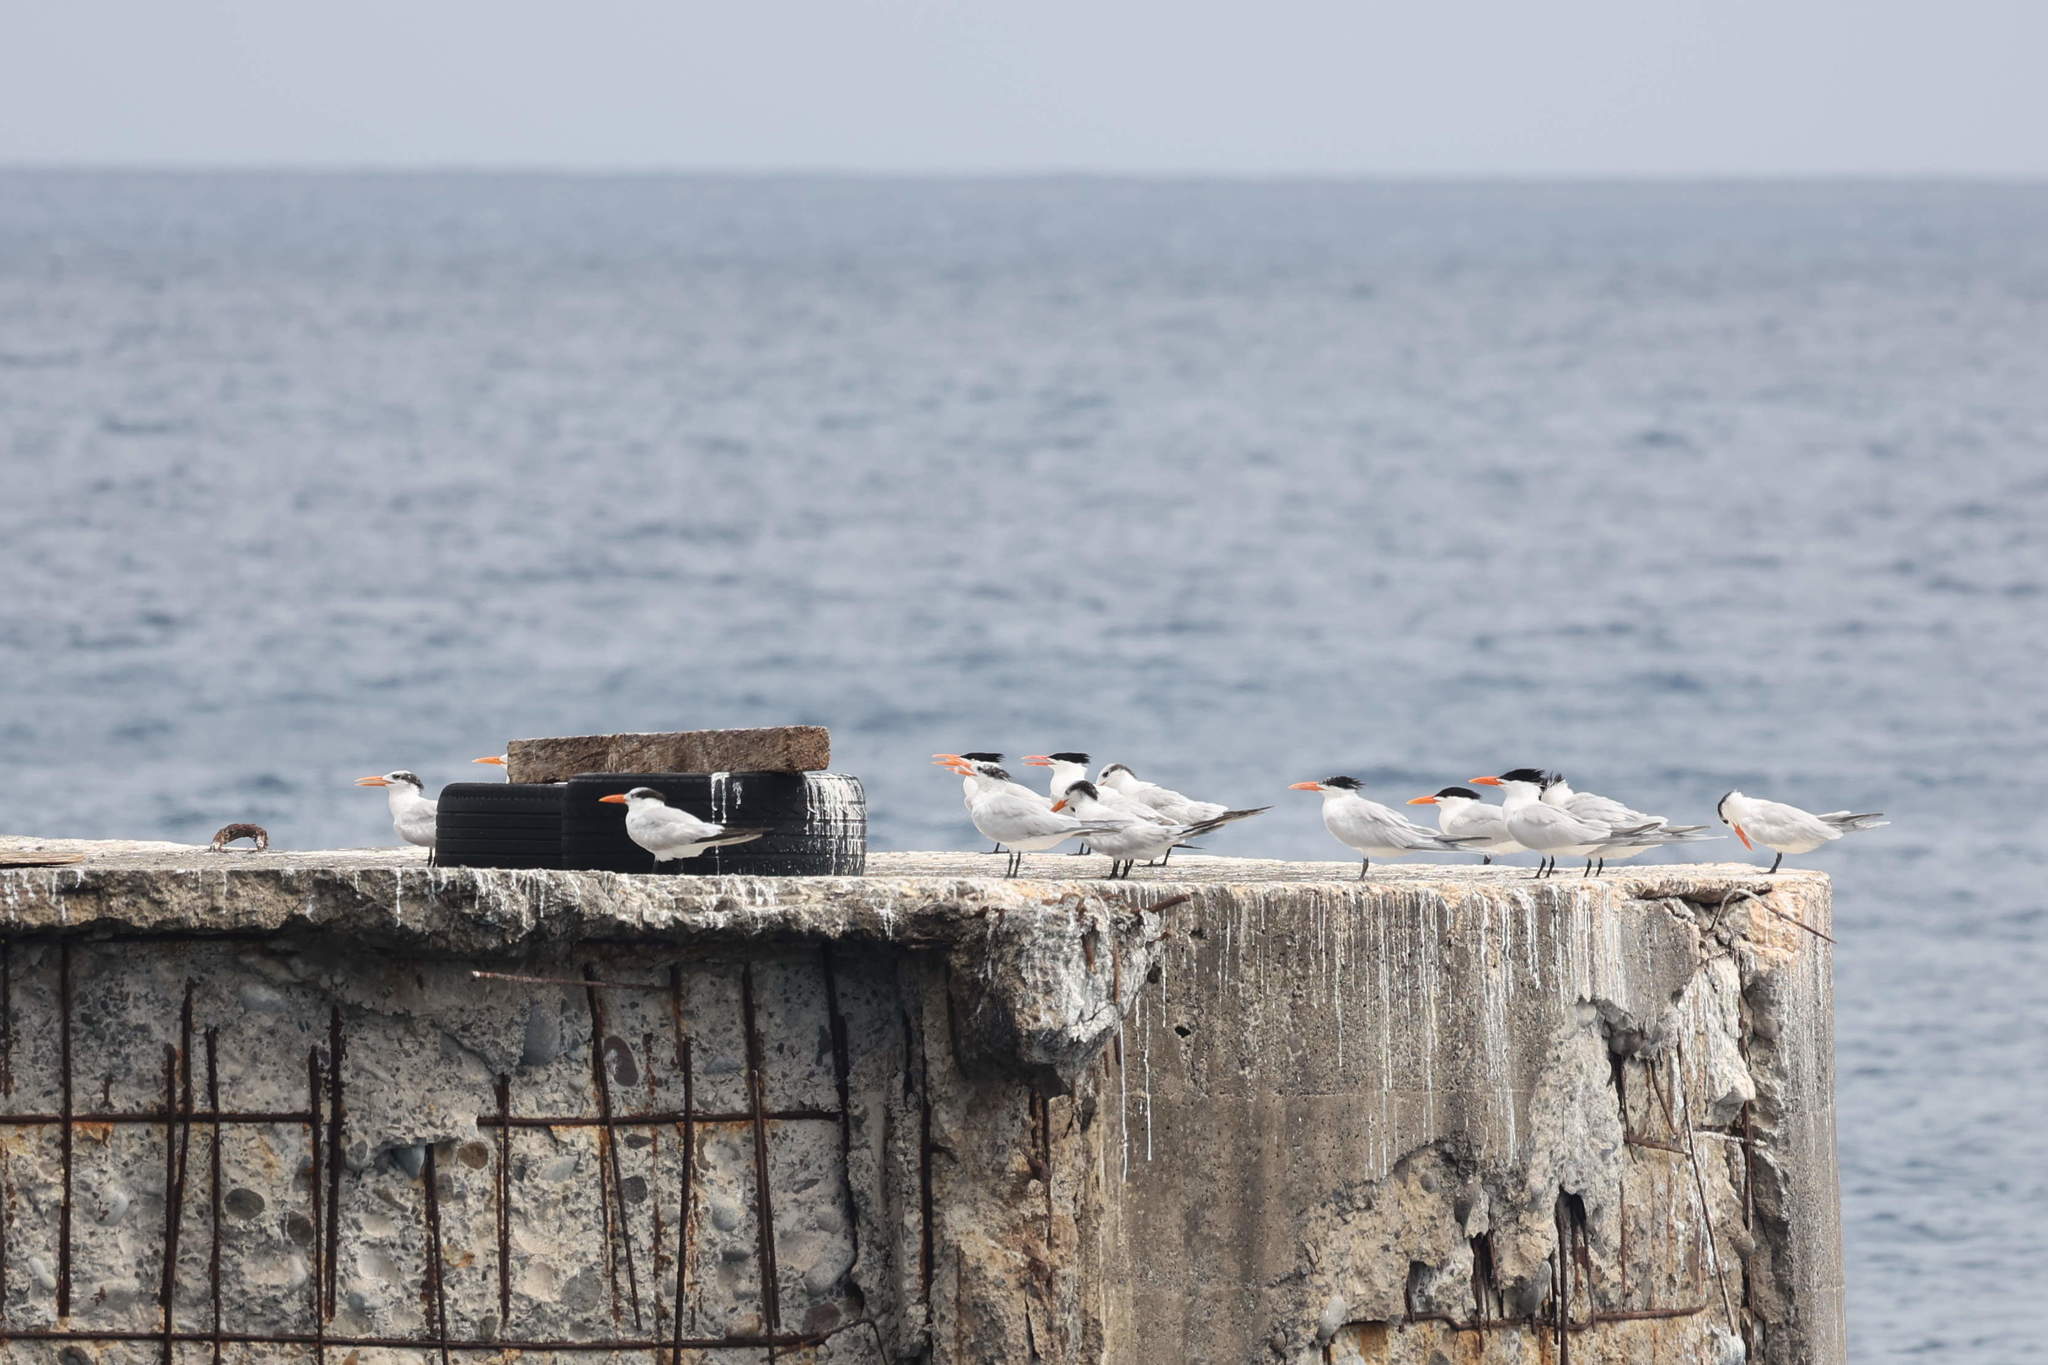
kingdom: Animalia
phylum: Chordata
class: Aves
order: Charadriiformes
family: Laridae
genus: Thalasseus
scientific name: Thalasseus maximus
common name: Royal tern
